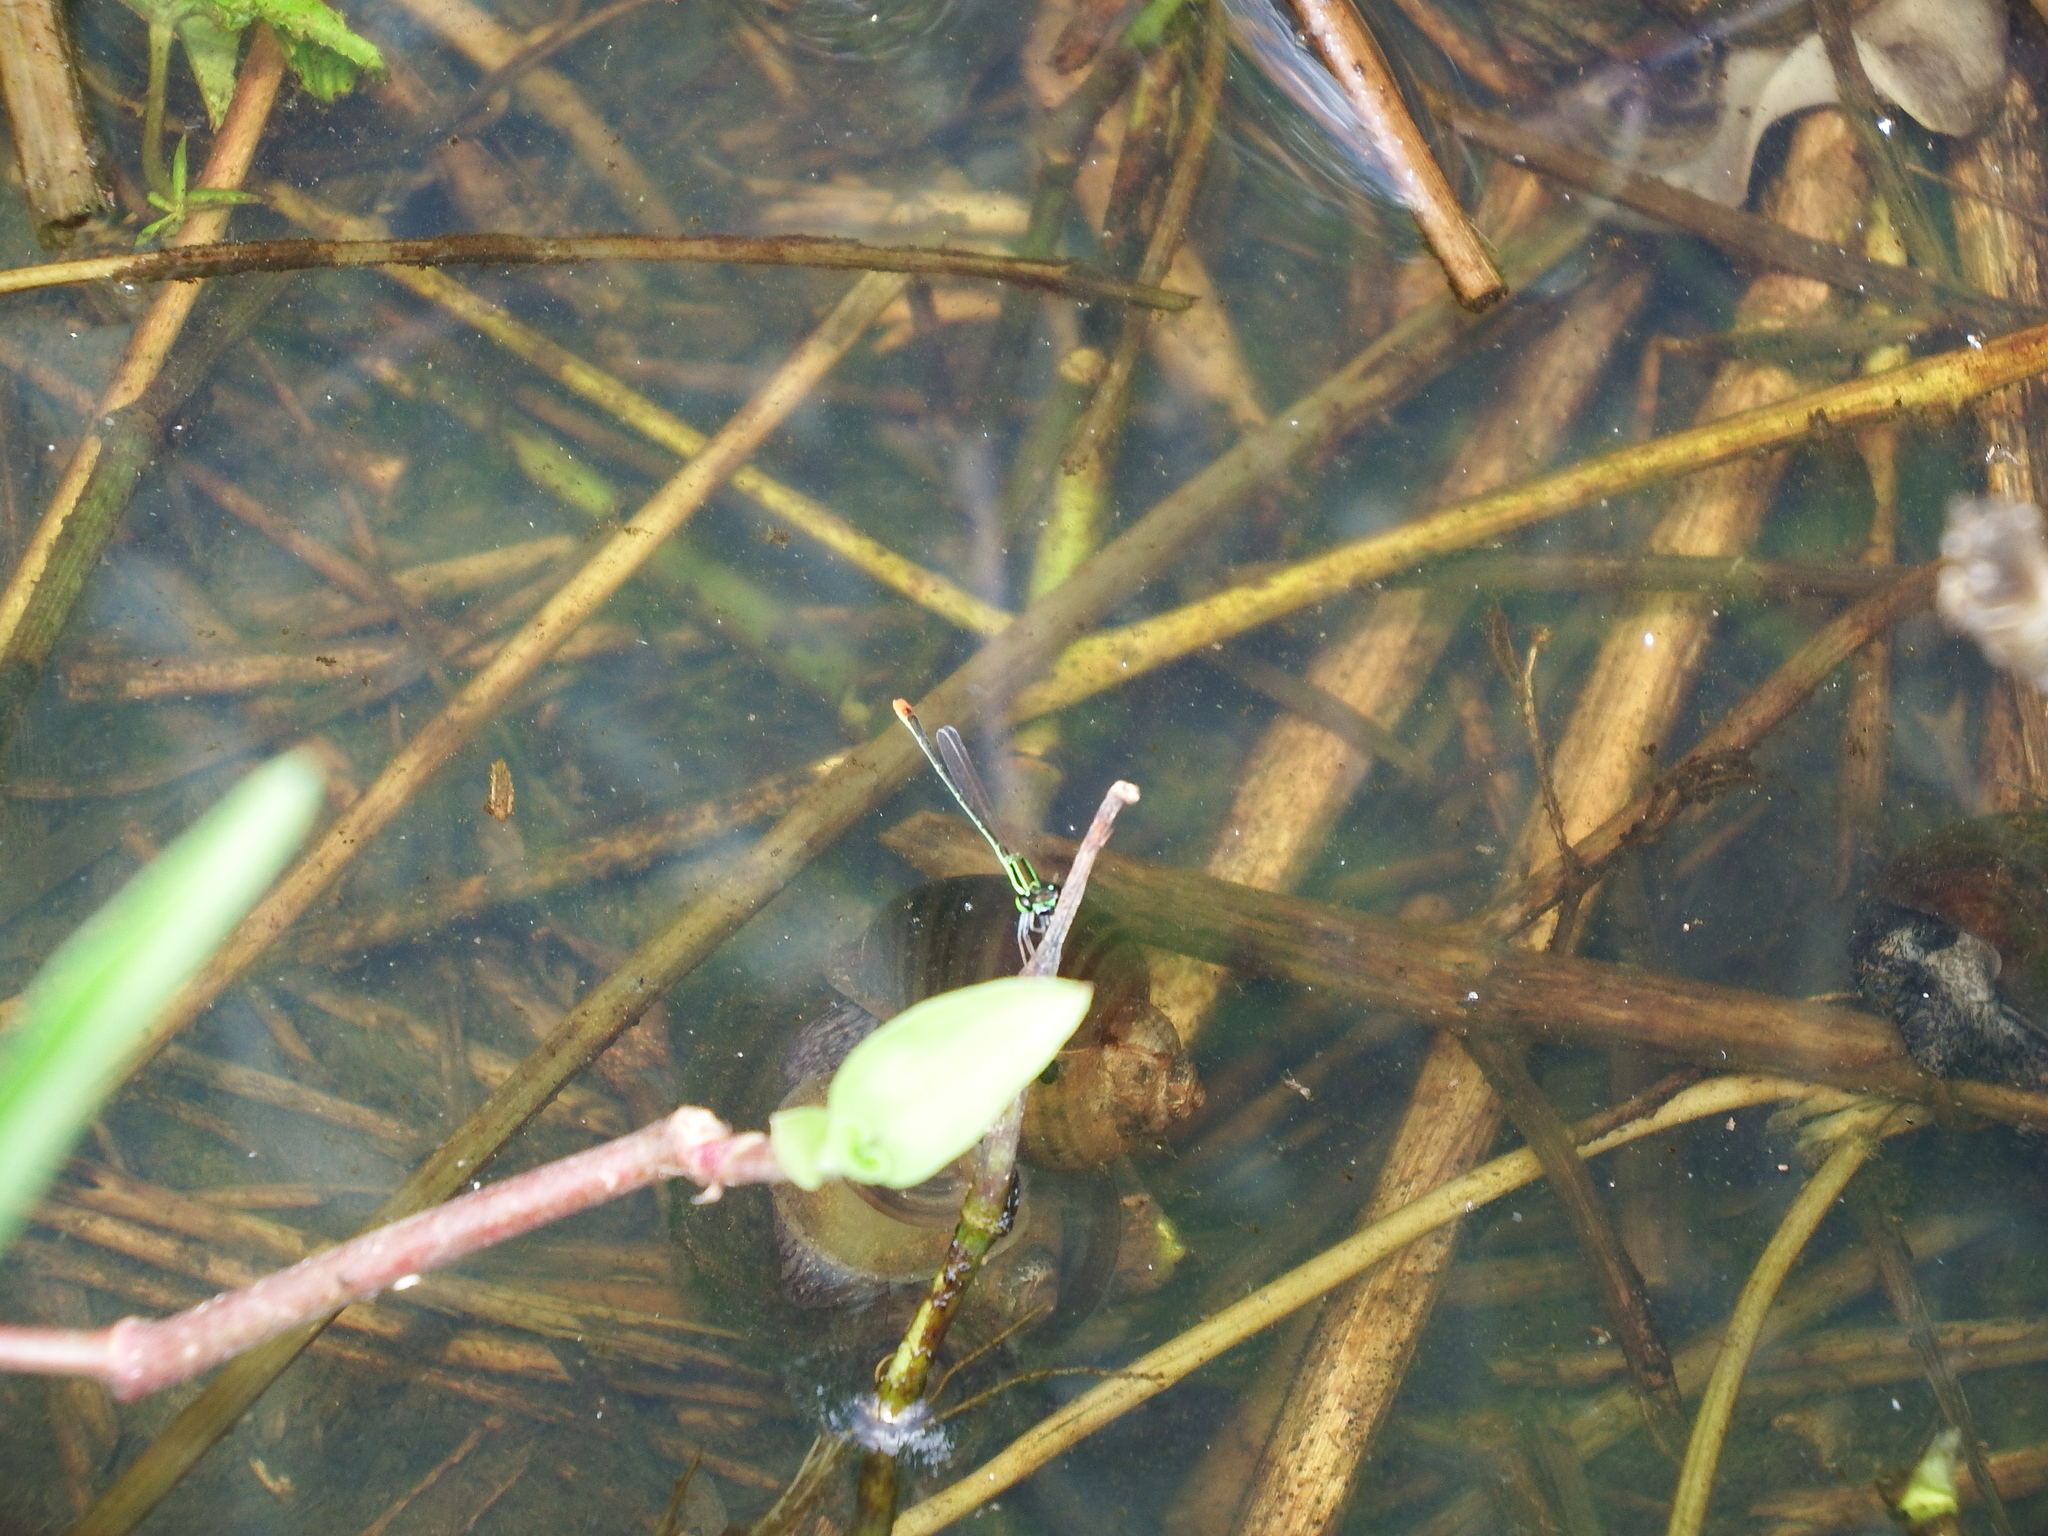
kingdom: Animalia
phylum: Arthropoda
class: Insecta
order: Odonata
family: Coenagrionidae
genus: Agriocnemis
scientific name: Agriocnemis femina
